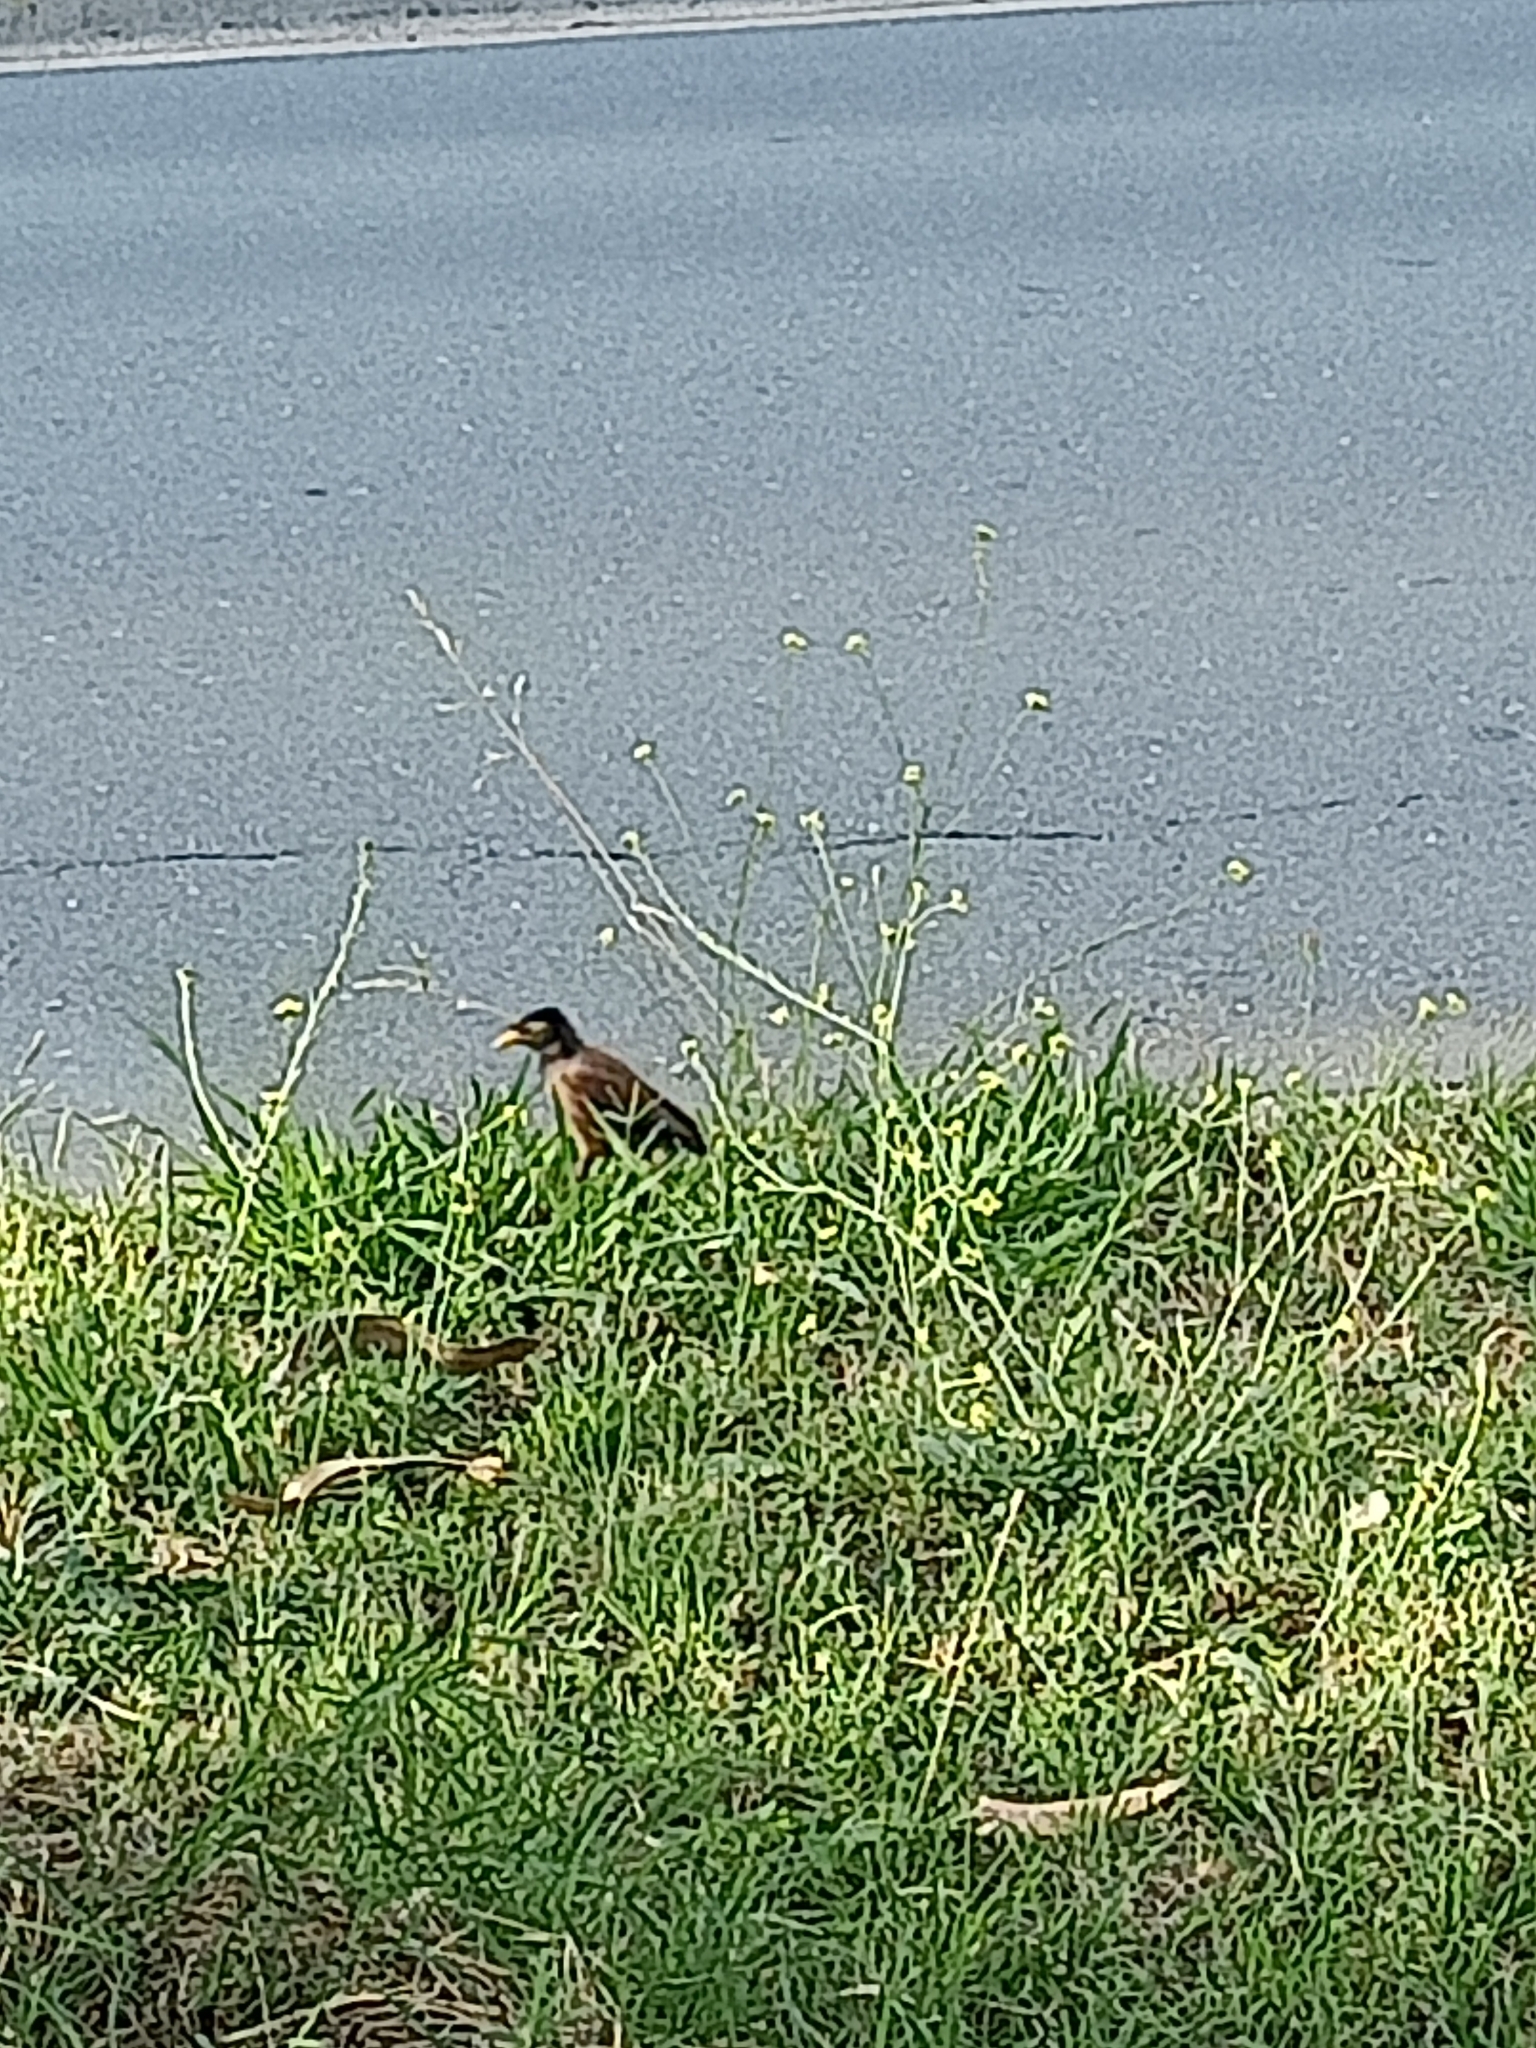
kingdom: Animalia
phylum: Chordata
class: Aves
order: Passeriformes
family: Sturnidae
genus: Acridotheres
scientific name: Acridotheres tristis
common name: Common myna
